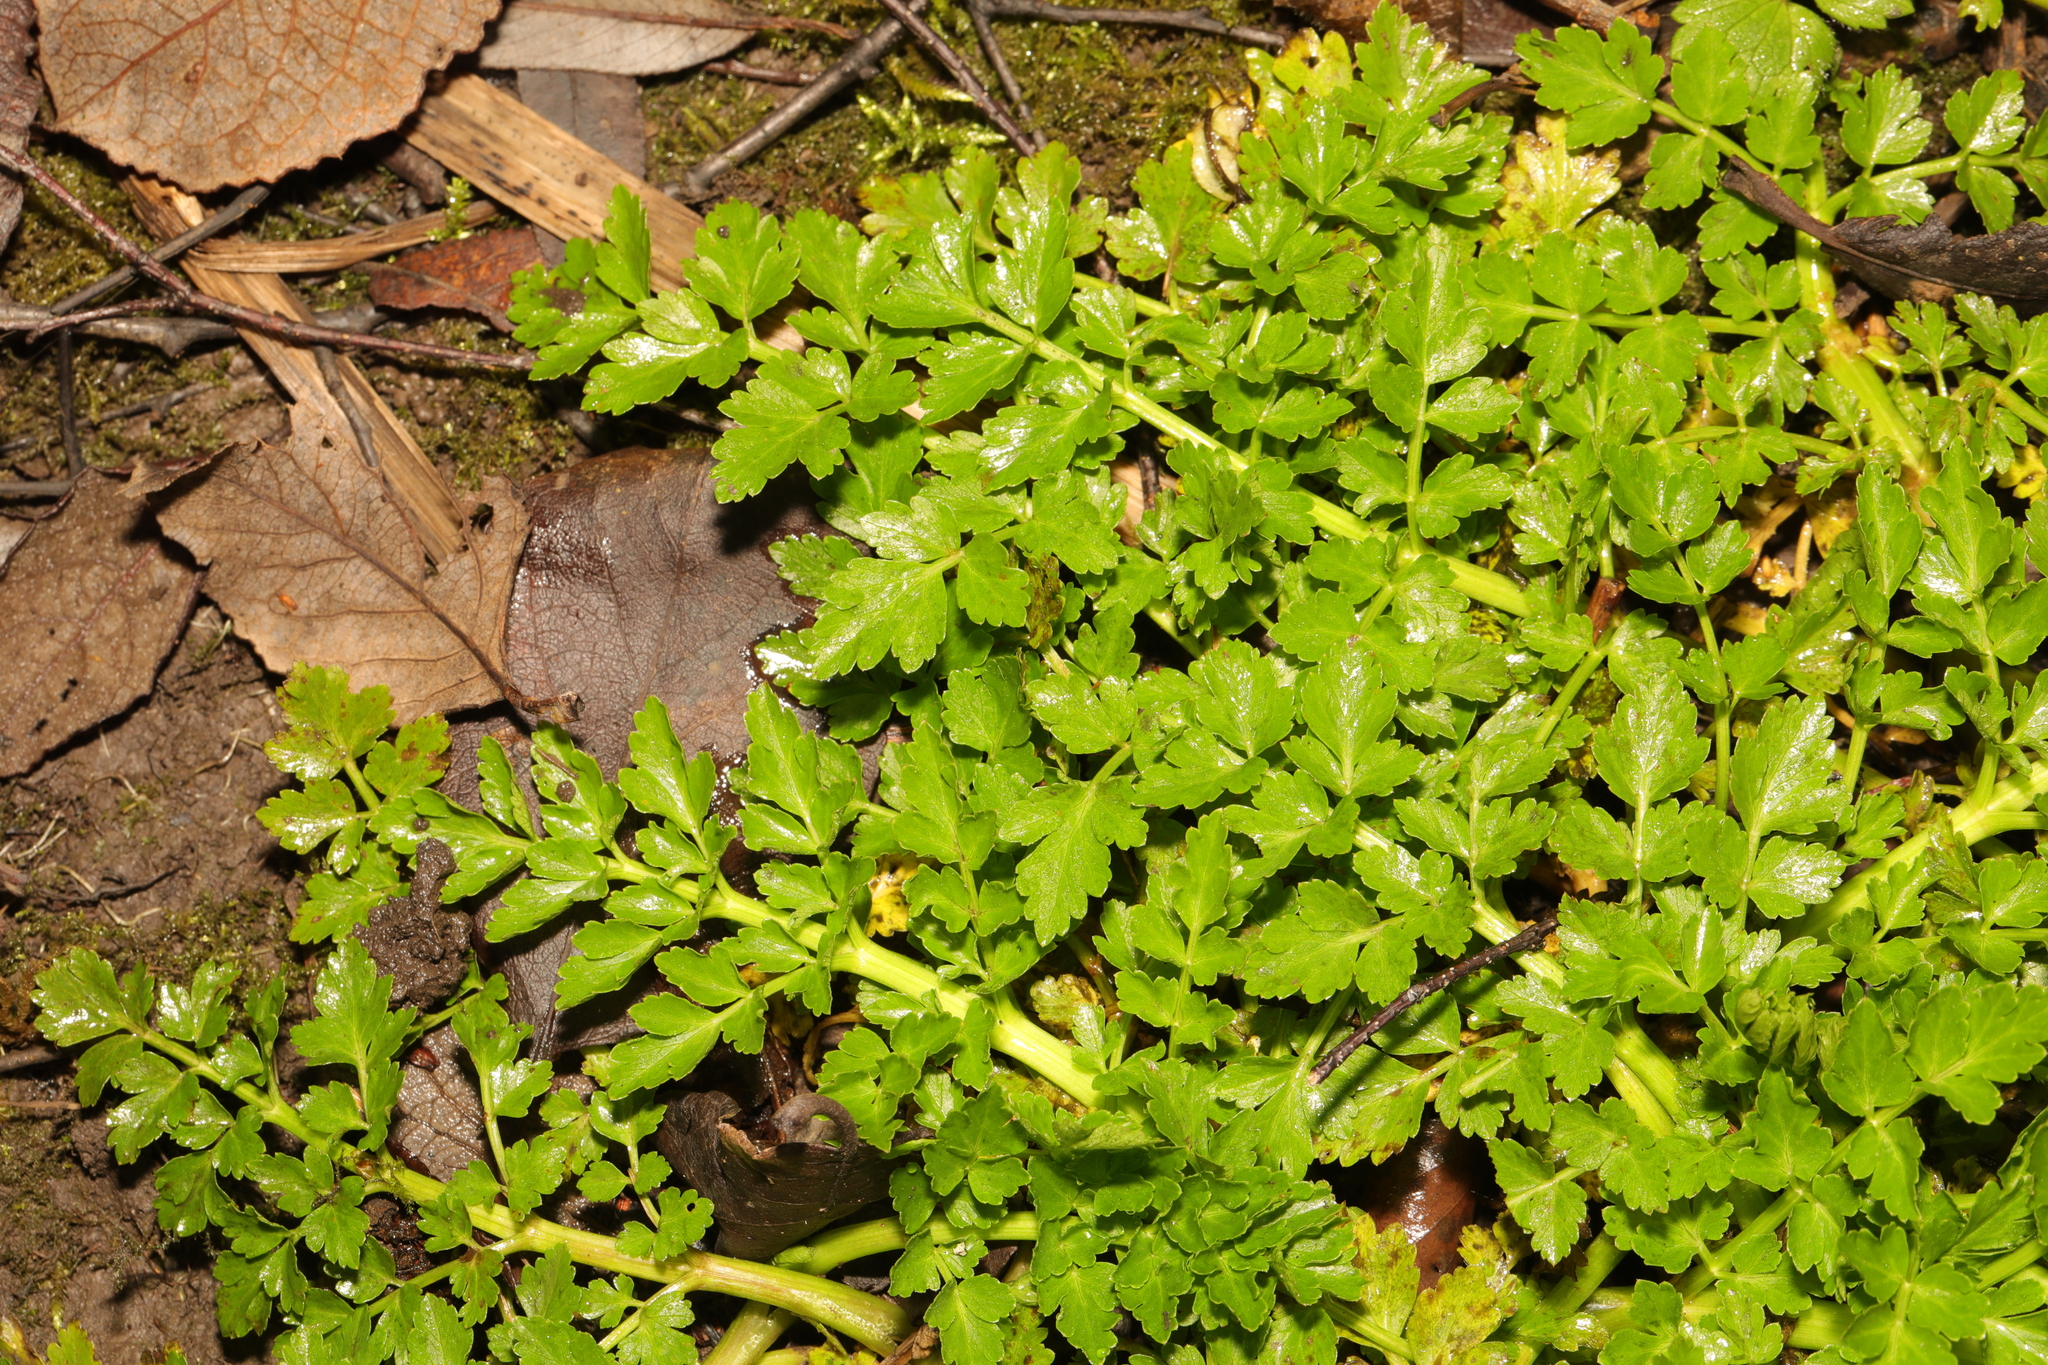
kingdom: Plantae
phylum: Tracheophyta
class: Magnoliopsida
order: Apiales
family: Apiaceae
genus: Oenanthe
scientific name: Oenanthe crocata
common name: Hemlock water-dropwort
